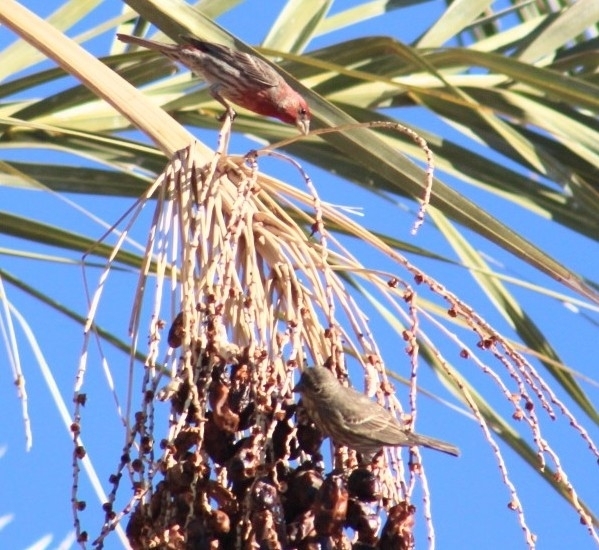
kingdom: Animalia
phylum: Chordata
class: Aves
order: Passeriformes
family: Fringillidae
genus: Haemorhous
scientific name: Haemorhous mexicanus
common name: House finch
